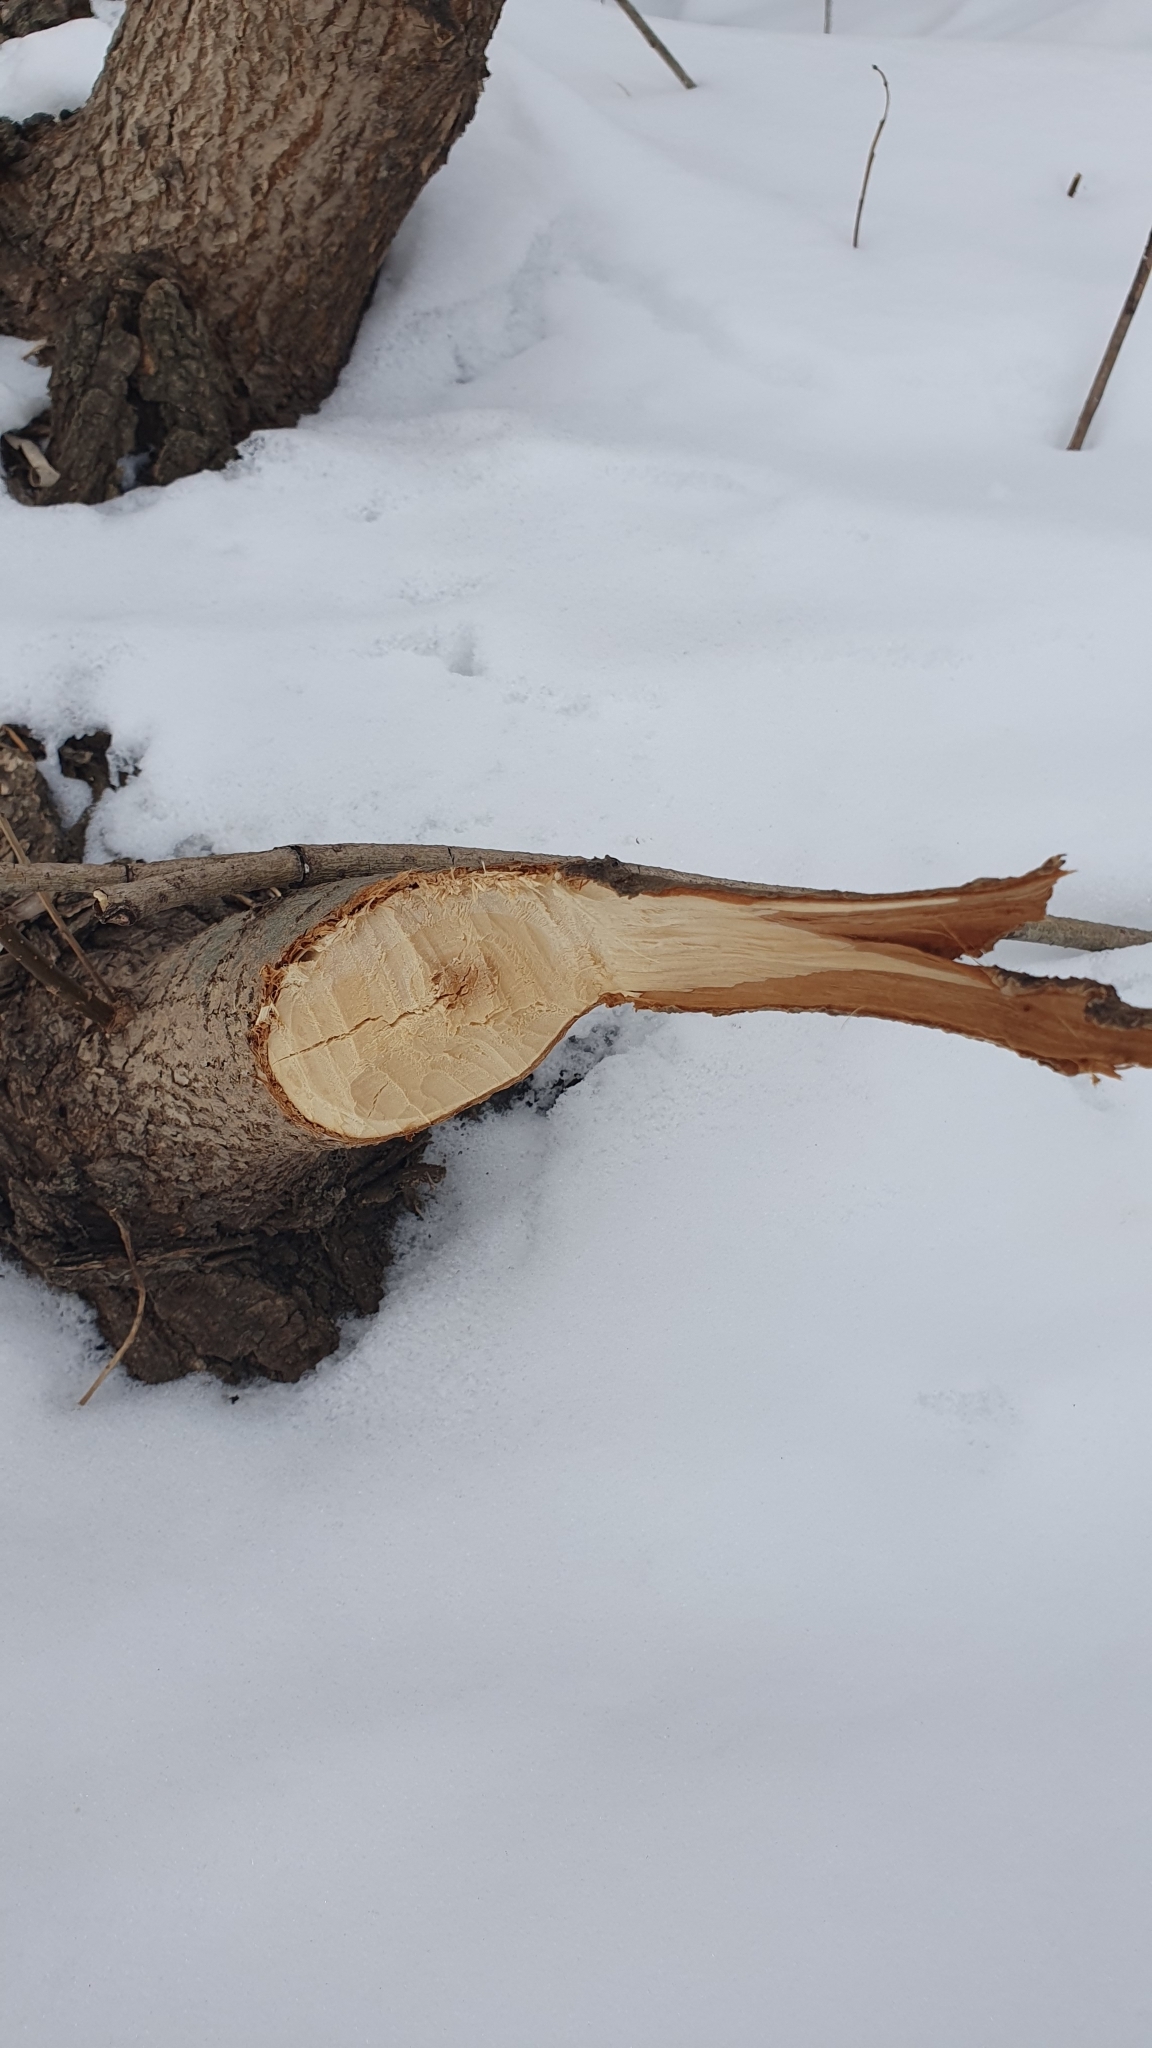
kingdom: Animalia
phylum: Chordata
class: Mammalia
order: Rodentia
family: Castoridae
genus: Castor
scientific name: Castor fiber
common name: Eurasian beaver
